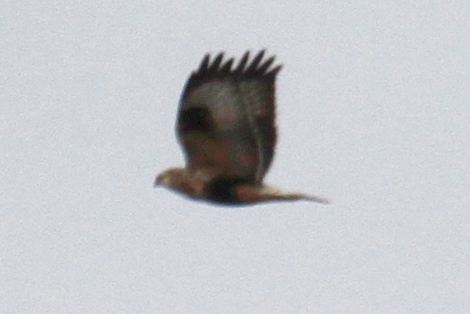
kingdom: Animalia
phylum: Chordata
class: Aves
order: Accipitriformes
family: Accipitridae
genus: Buteo
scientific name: Buteo lagopus
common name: Rough-legged buzzard
